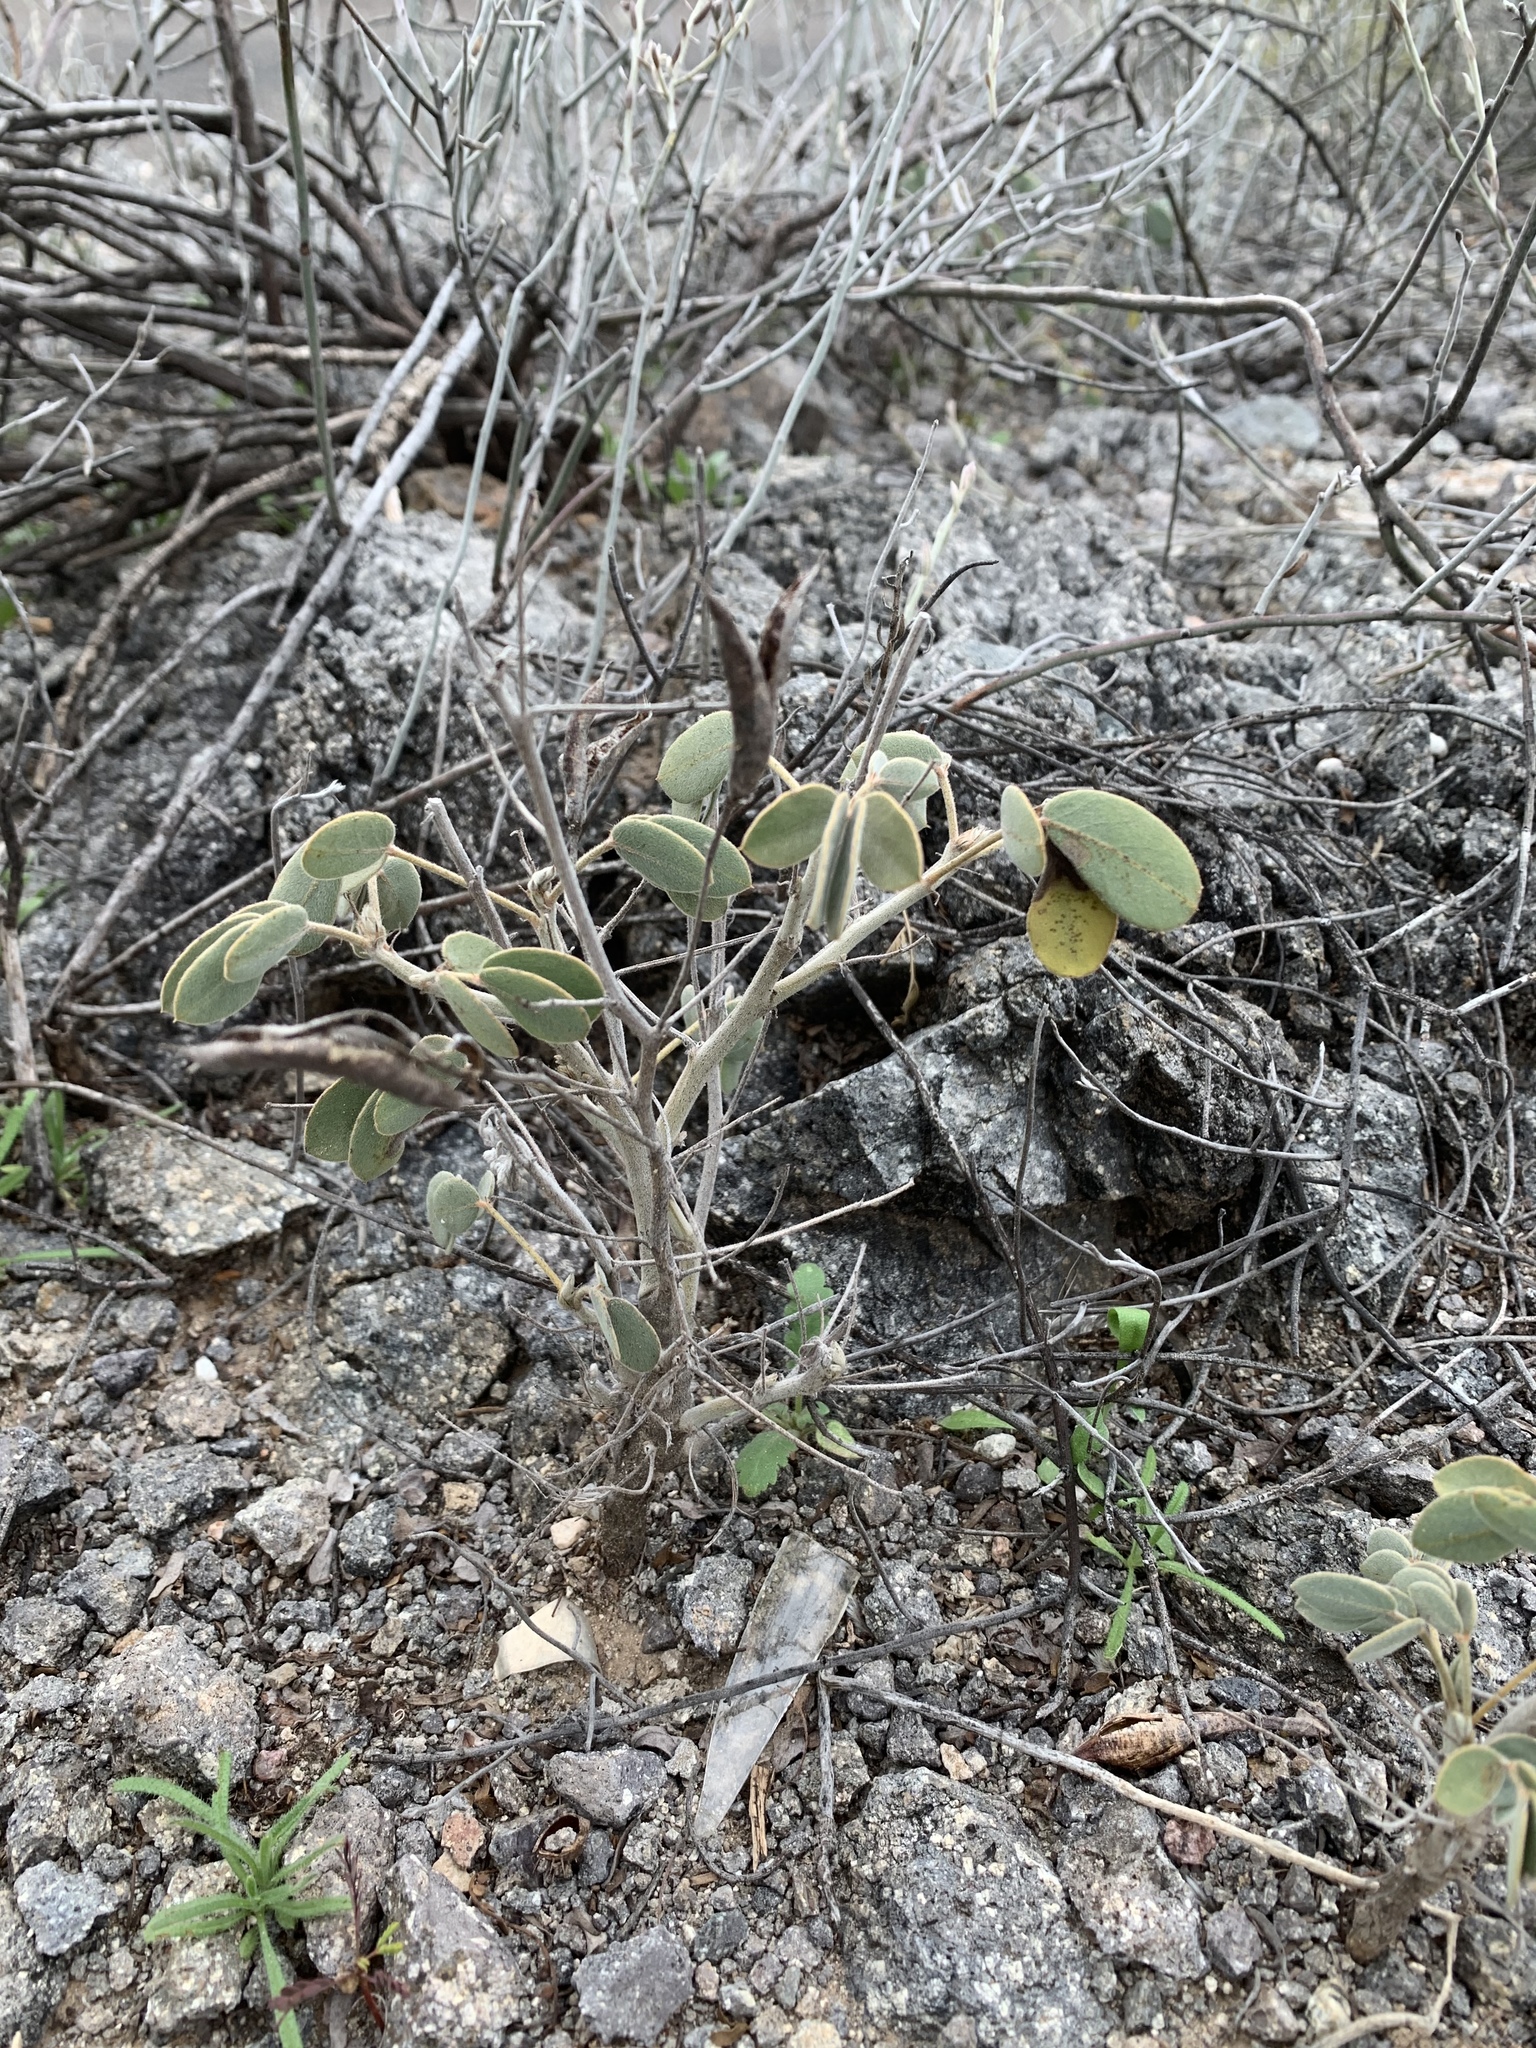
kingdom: Plantae
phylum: Tracheophyta
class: Magnoliopsida
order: Fabales
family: Fabaceae
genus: Senna
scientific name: Senna covesii
